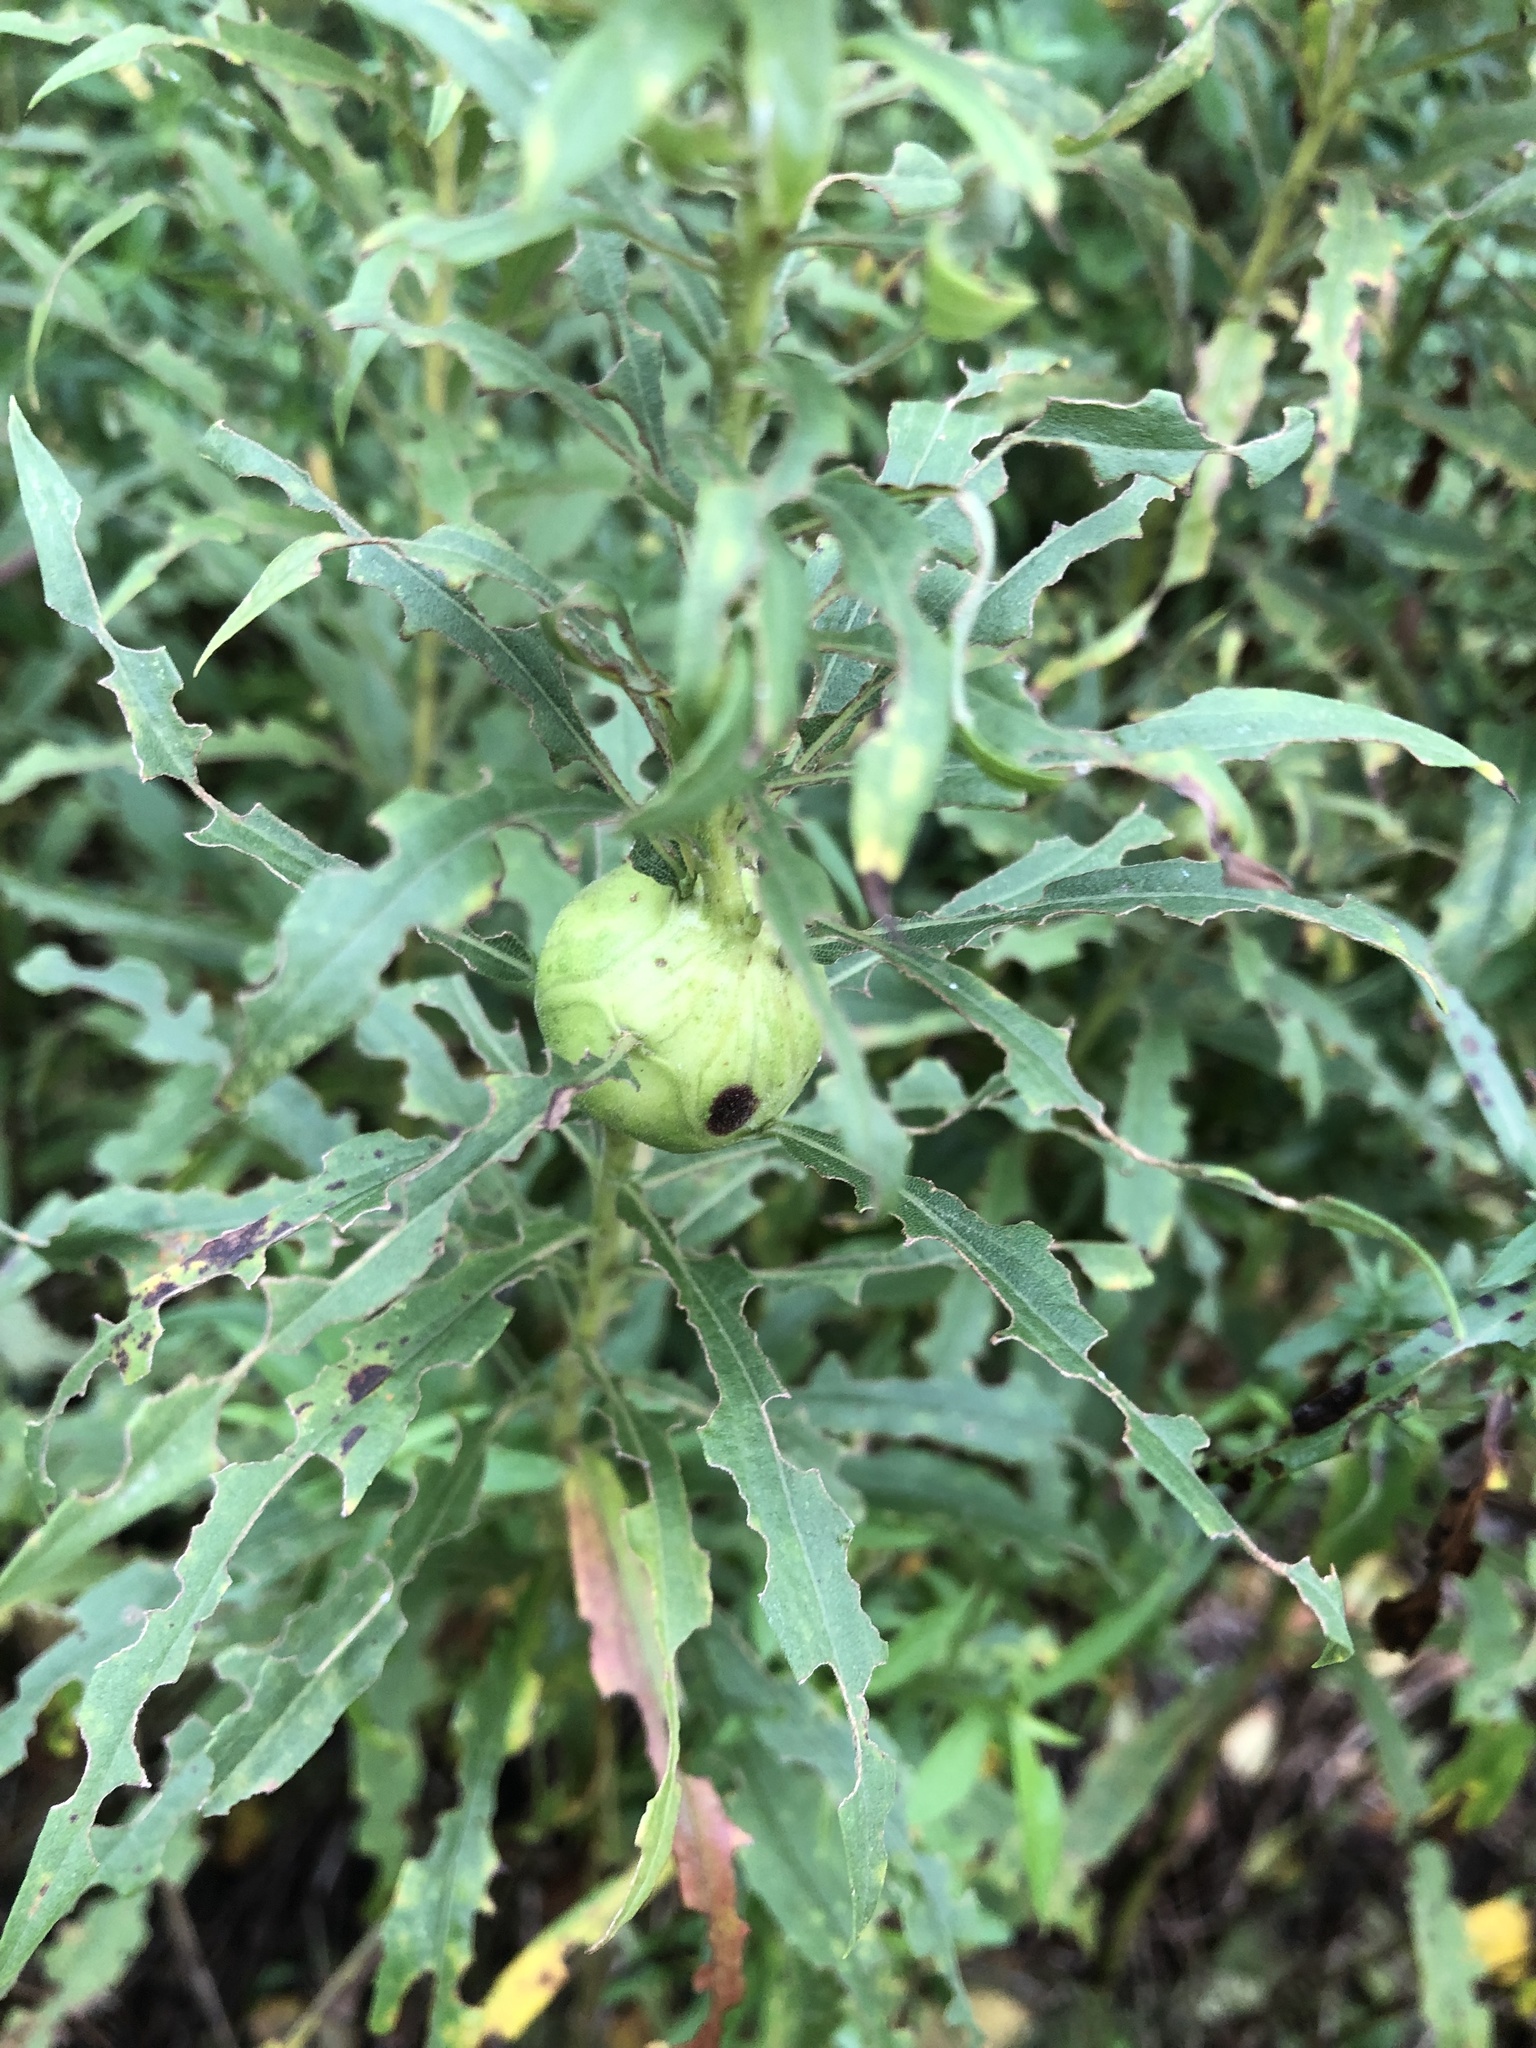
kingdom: Animalia
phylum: Arthropoda
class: Insecta
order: Diptera
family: Tephritidae
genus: Eurosta
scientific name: Eurosta solidaginis
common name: Goldenrod gall fly
